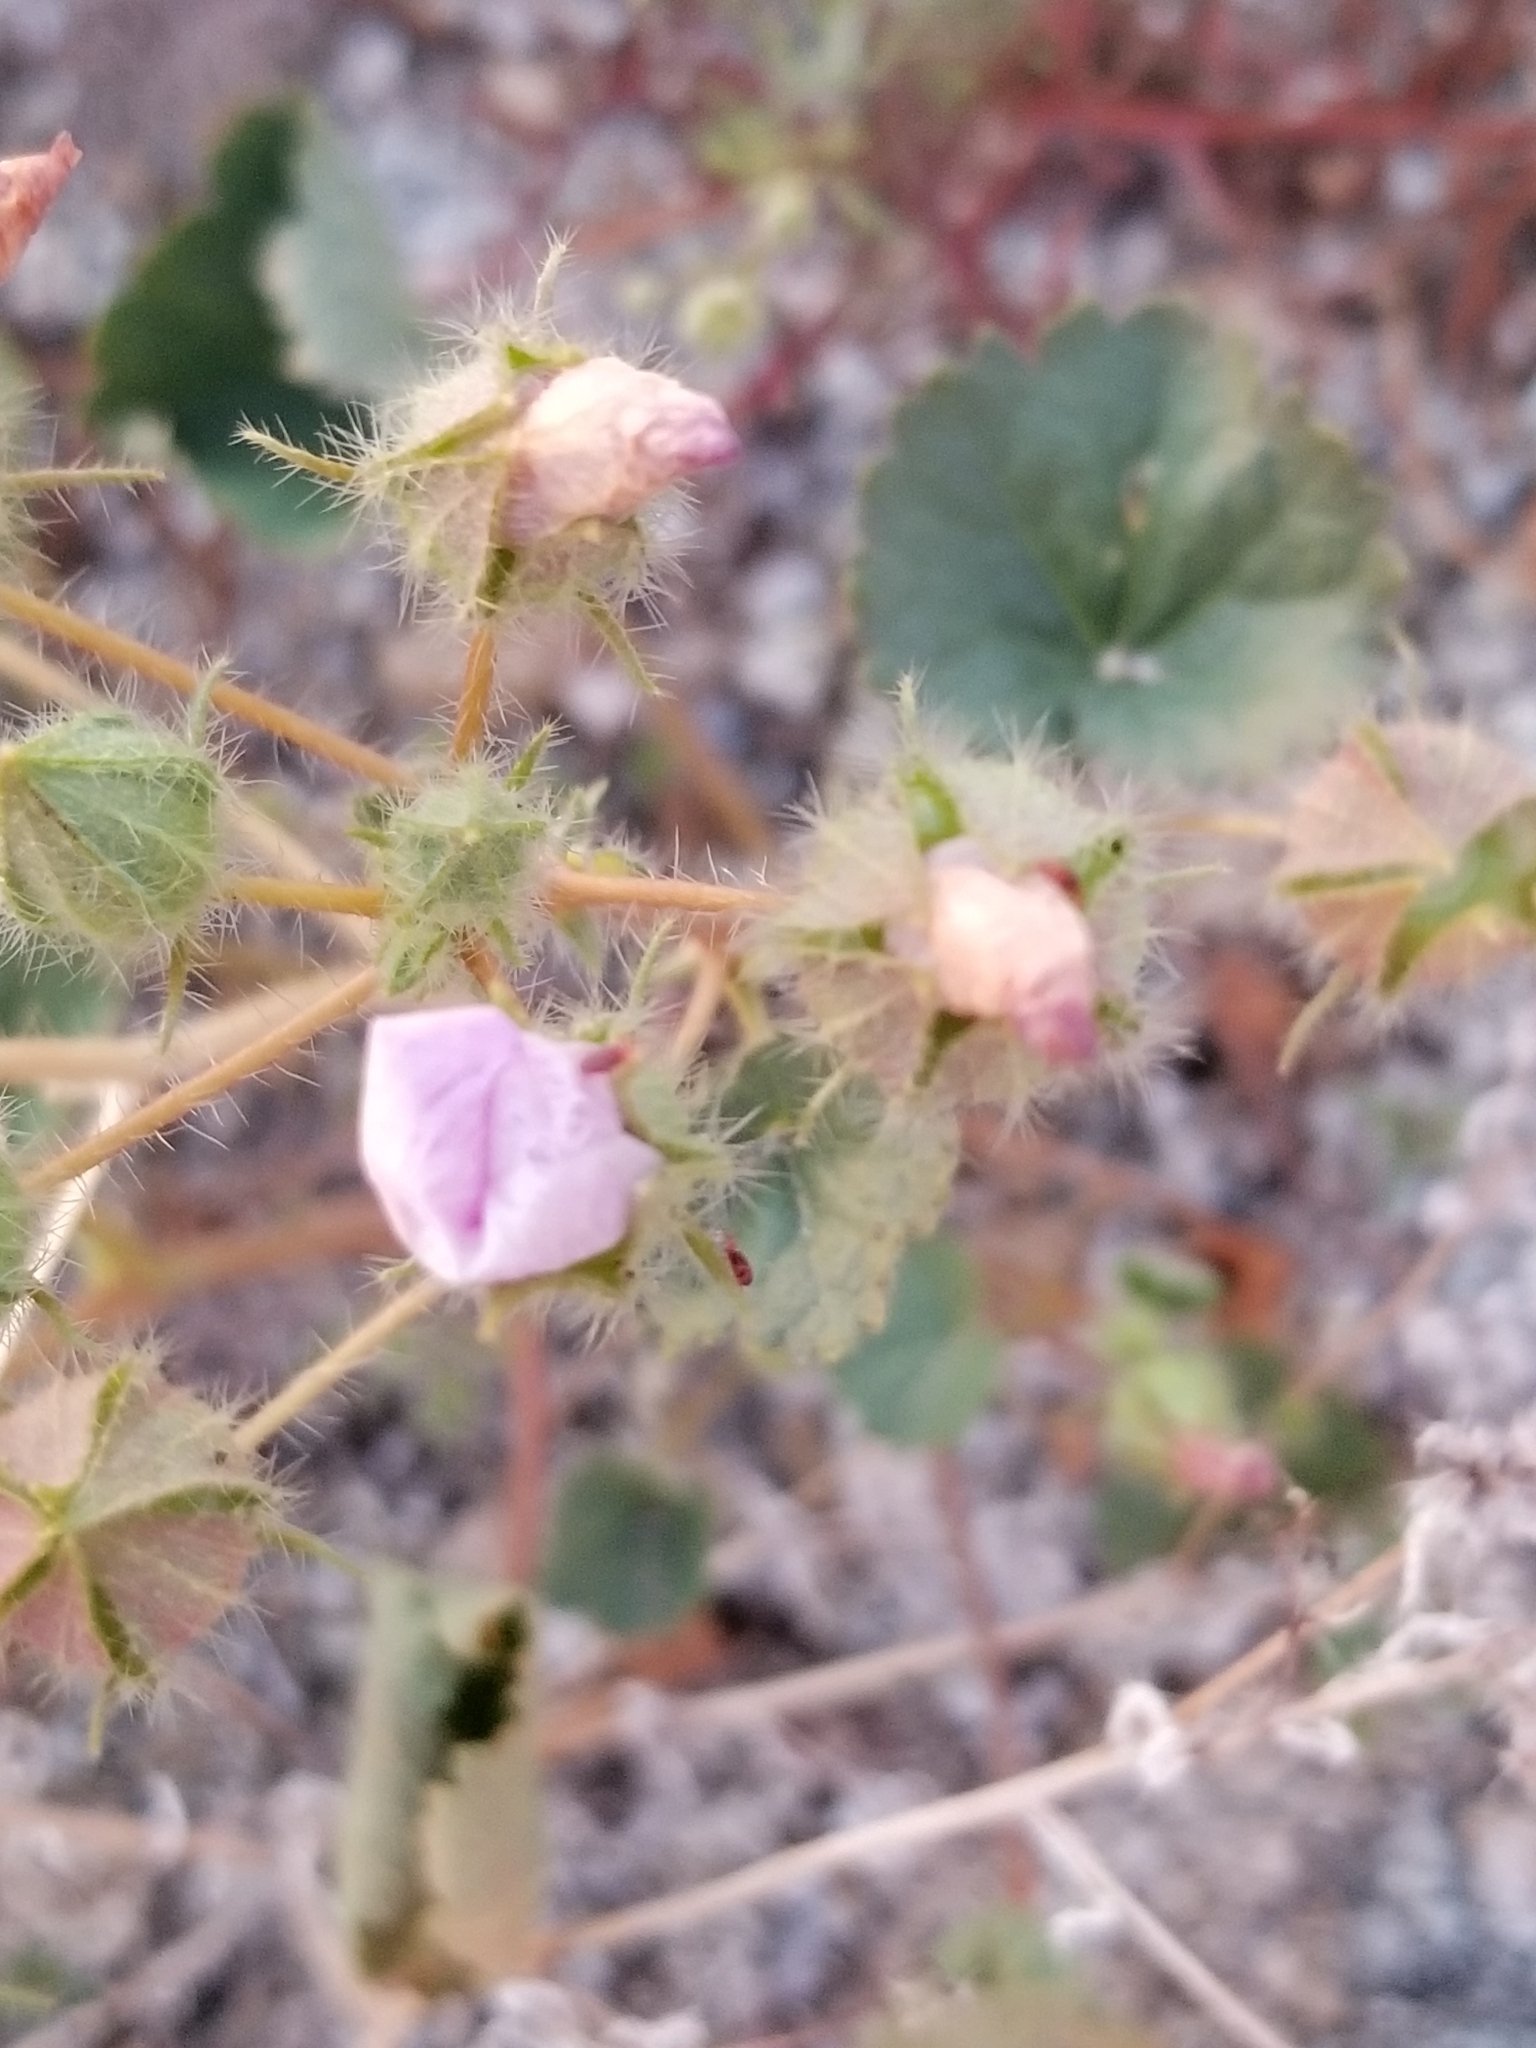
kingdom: Plantae
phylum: Tracheophyta
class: Magnoliopsida
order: Malvales
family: Malvaceae
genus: Eremalche
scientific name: Eremalche rotundifolia
